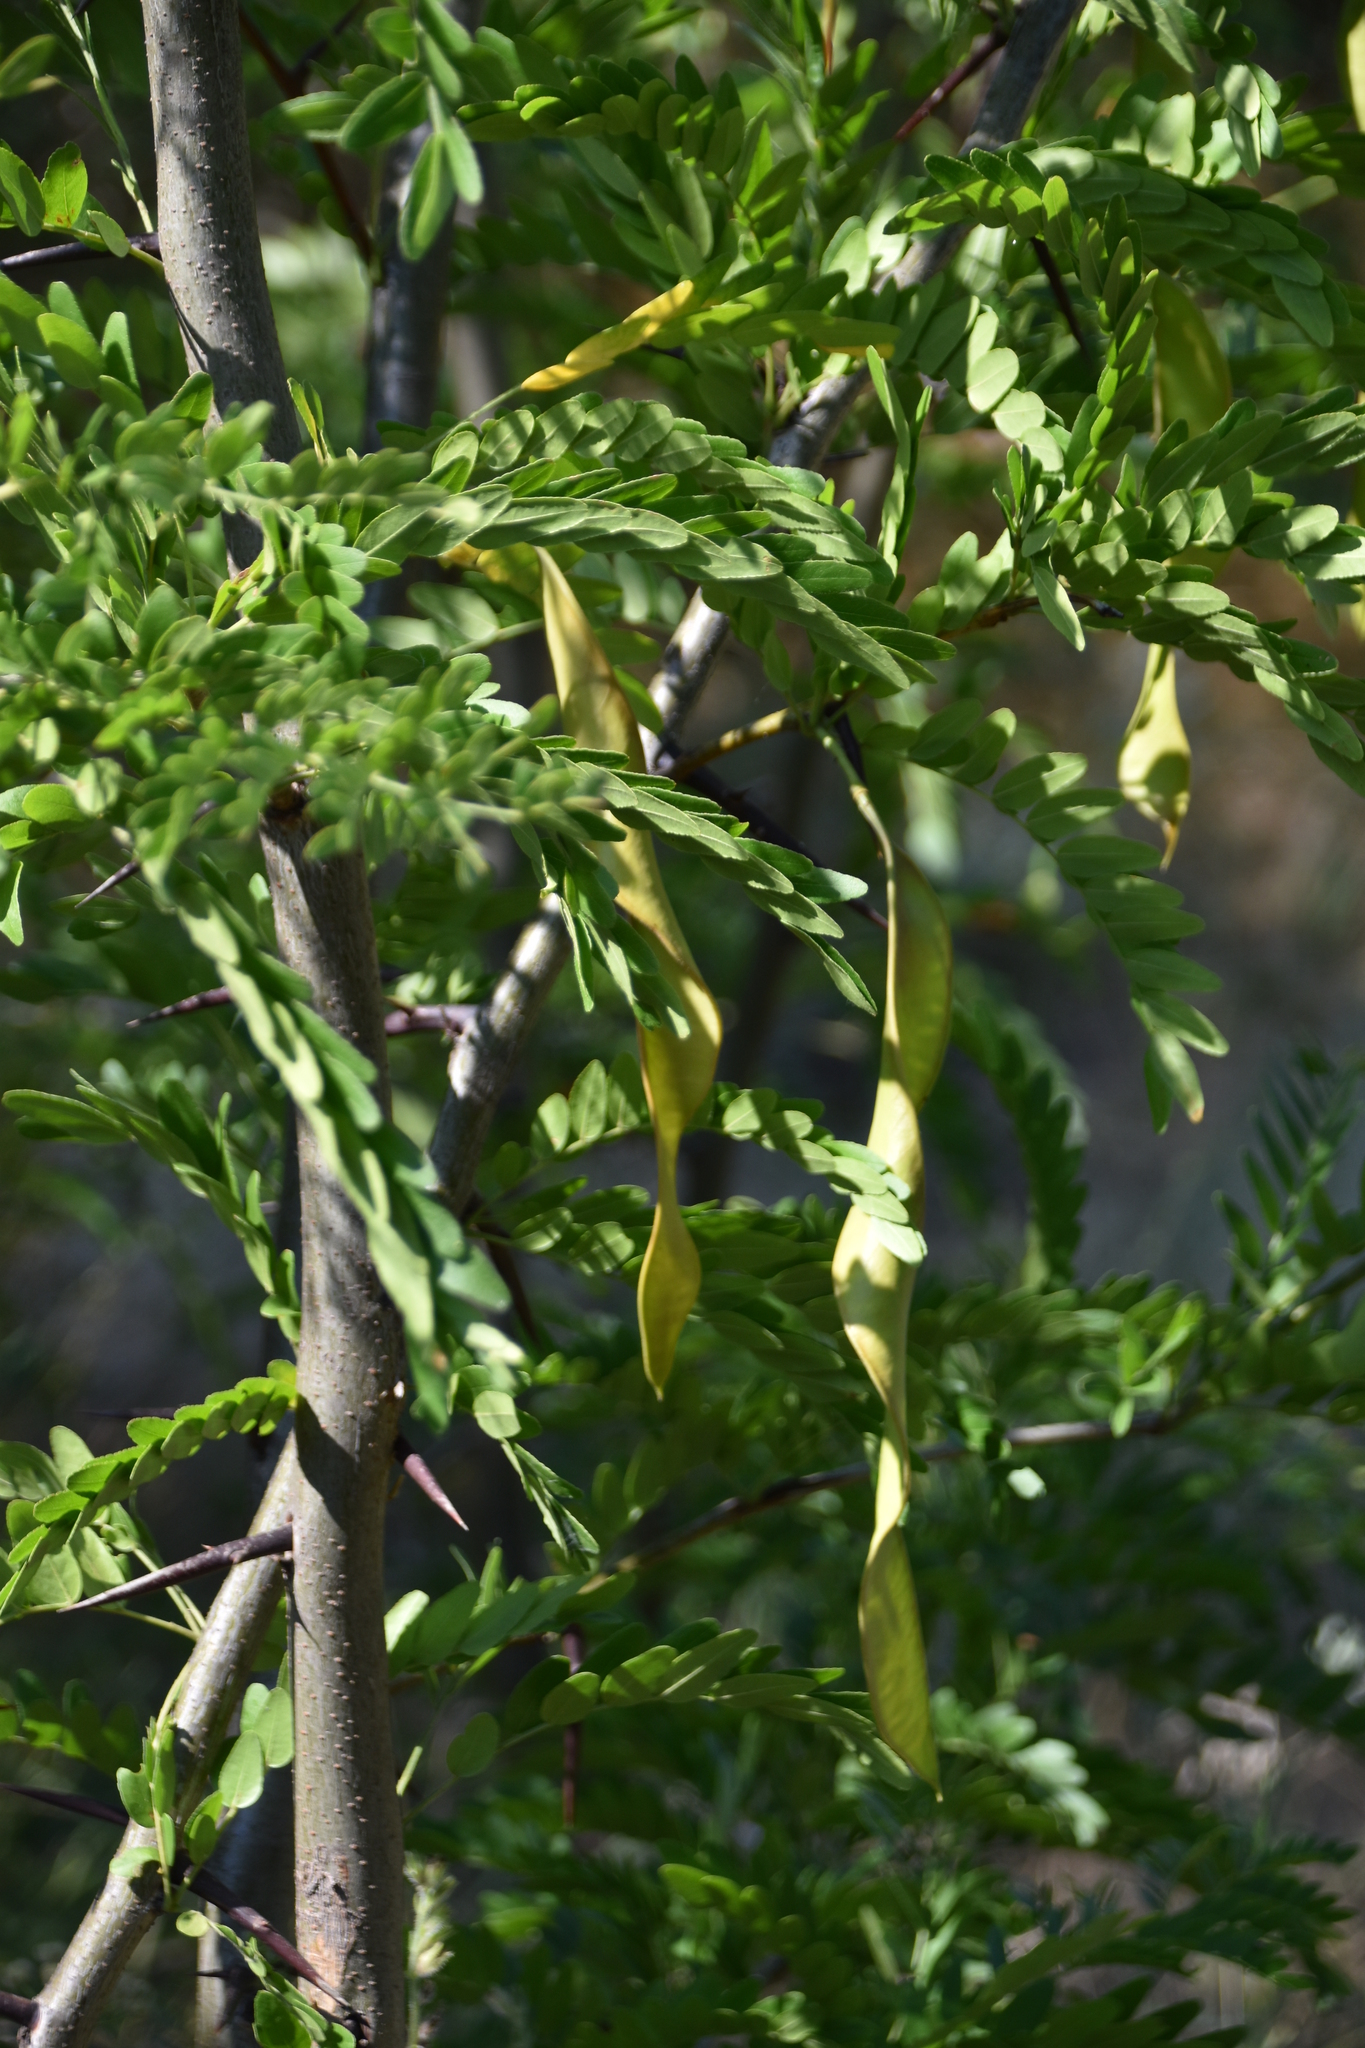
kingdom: Plantae
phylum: Tracheophyta
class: Magnoliopsida
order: Fabales
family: Fabaceae
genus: Gleditsia
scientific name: Gleditsia triacanthos
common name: Common honeylocust
